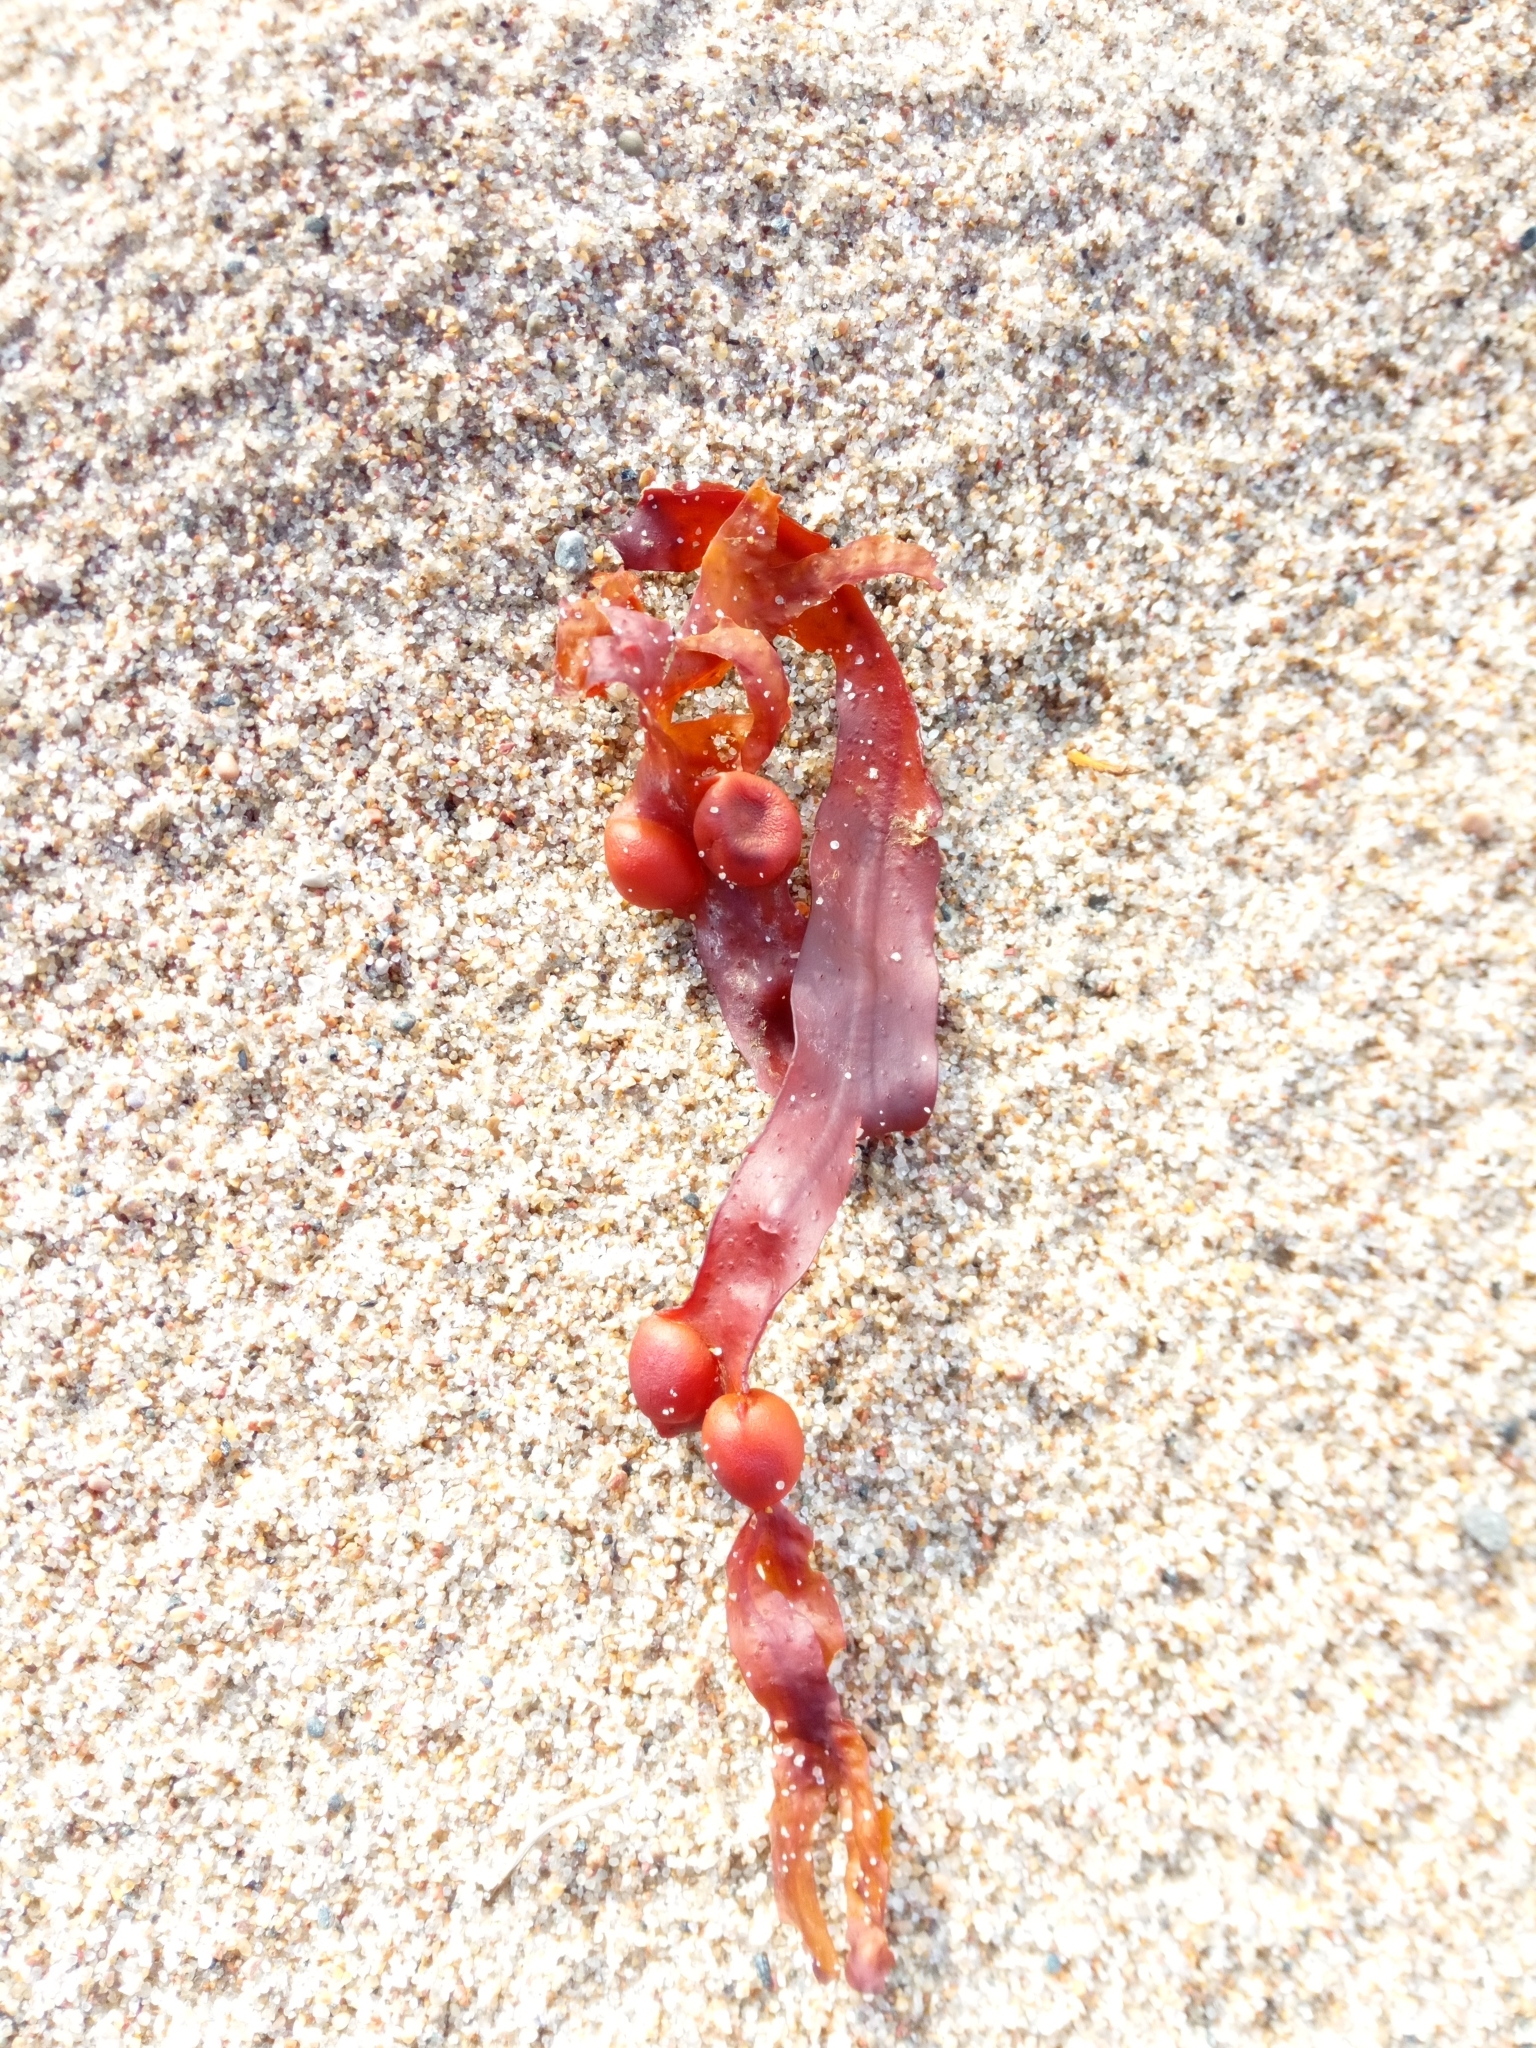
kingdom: Chromista
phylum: Ochrophyta
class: Phaeophyceae
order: Fucales
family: Fucaceae
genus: Fucus
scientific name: Fucus vesiculosus
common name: Bladder wrack
